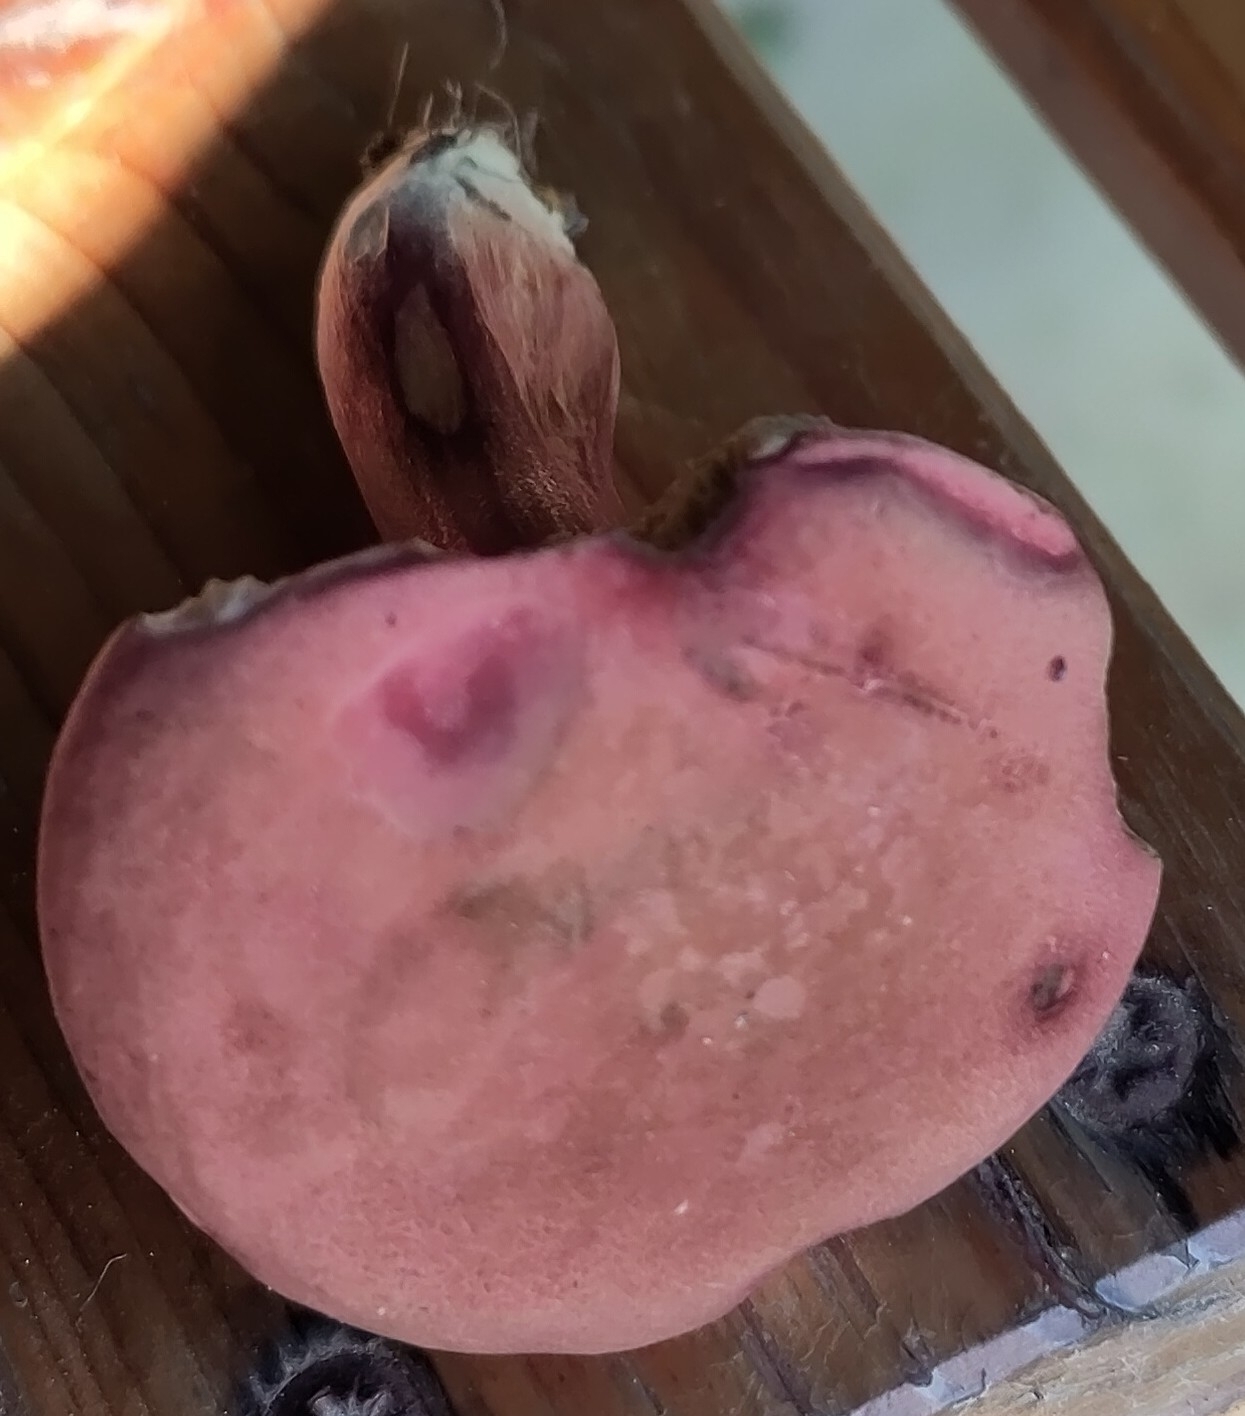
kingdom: Fungi
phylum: Basidiomycota
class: Agaricomycetes
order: Boletales
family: Boletaceae
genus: Hortiboletus
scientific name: Hortiboletus rubellus
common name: Ruby bolete
